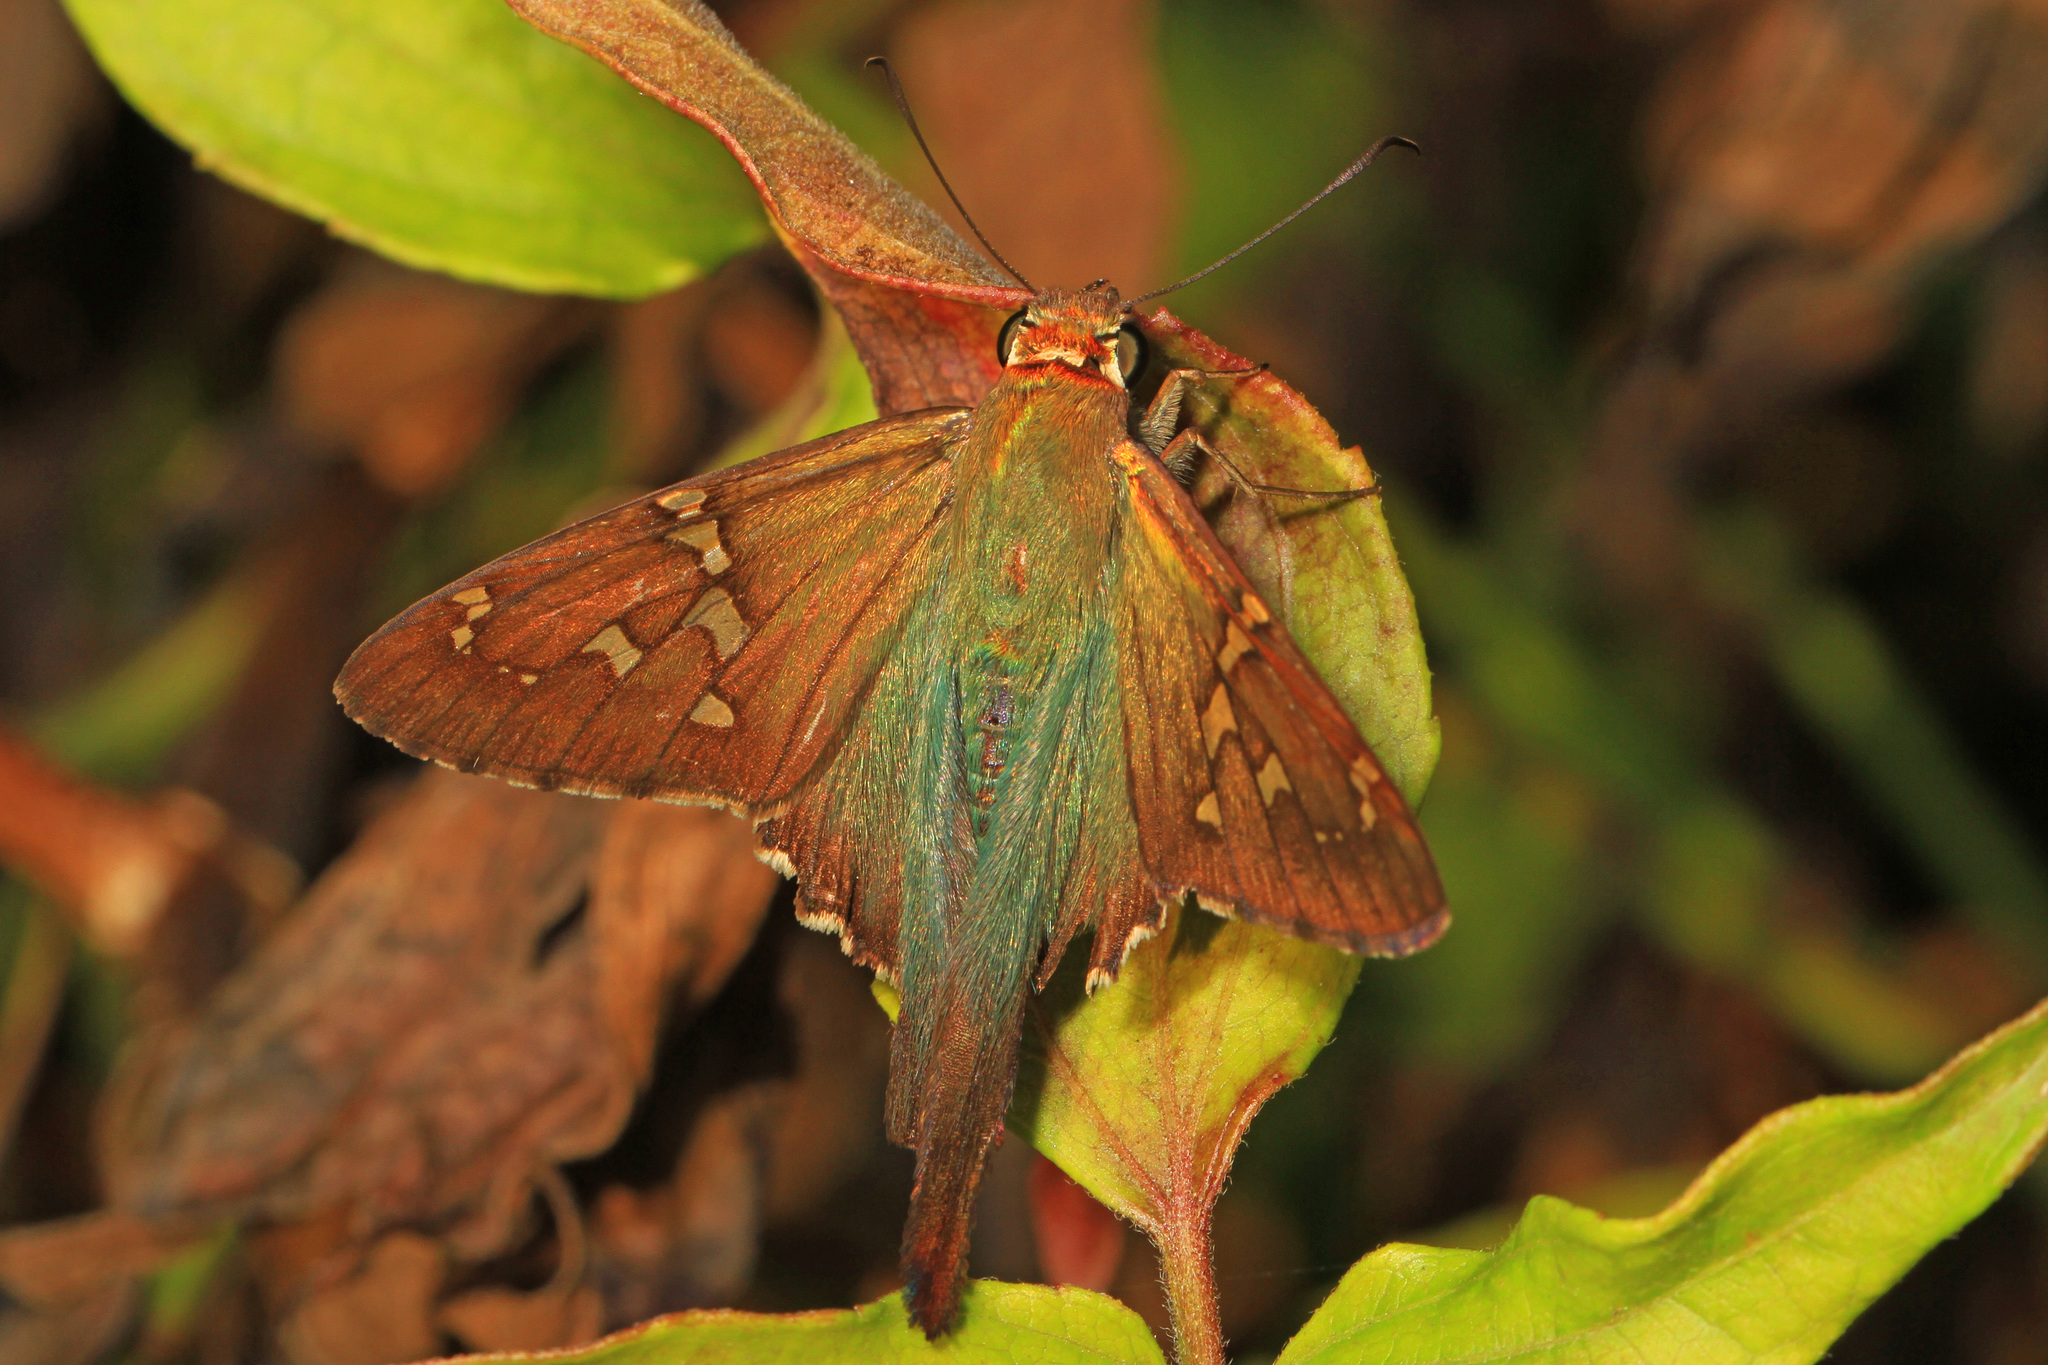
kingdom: Animalia
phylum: Arthropoda
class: Insecta
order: Lepidoptera
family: Hesperiidae
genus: Urbanus
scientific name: Urbanus proteus
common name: Long-tailed skipper
